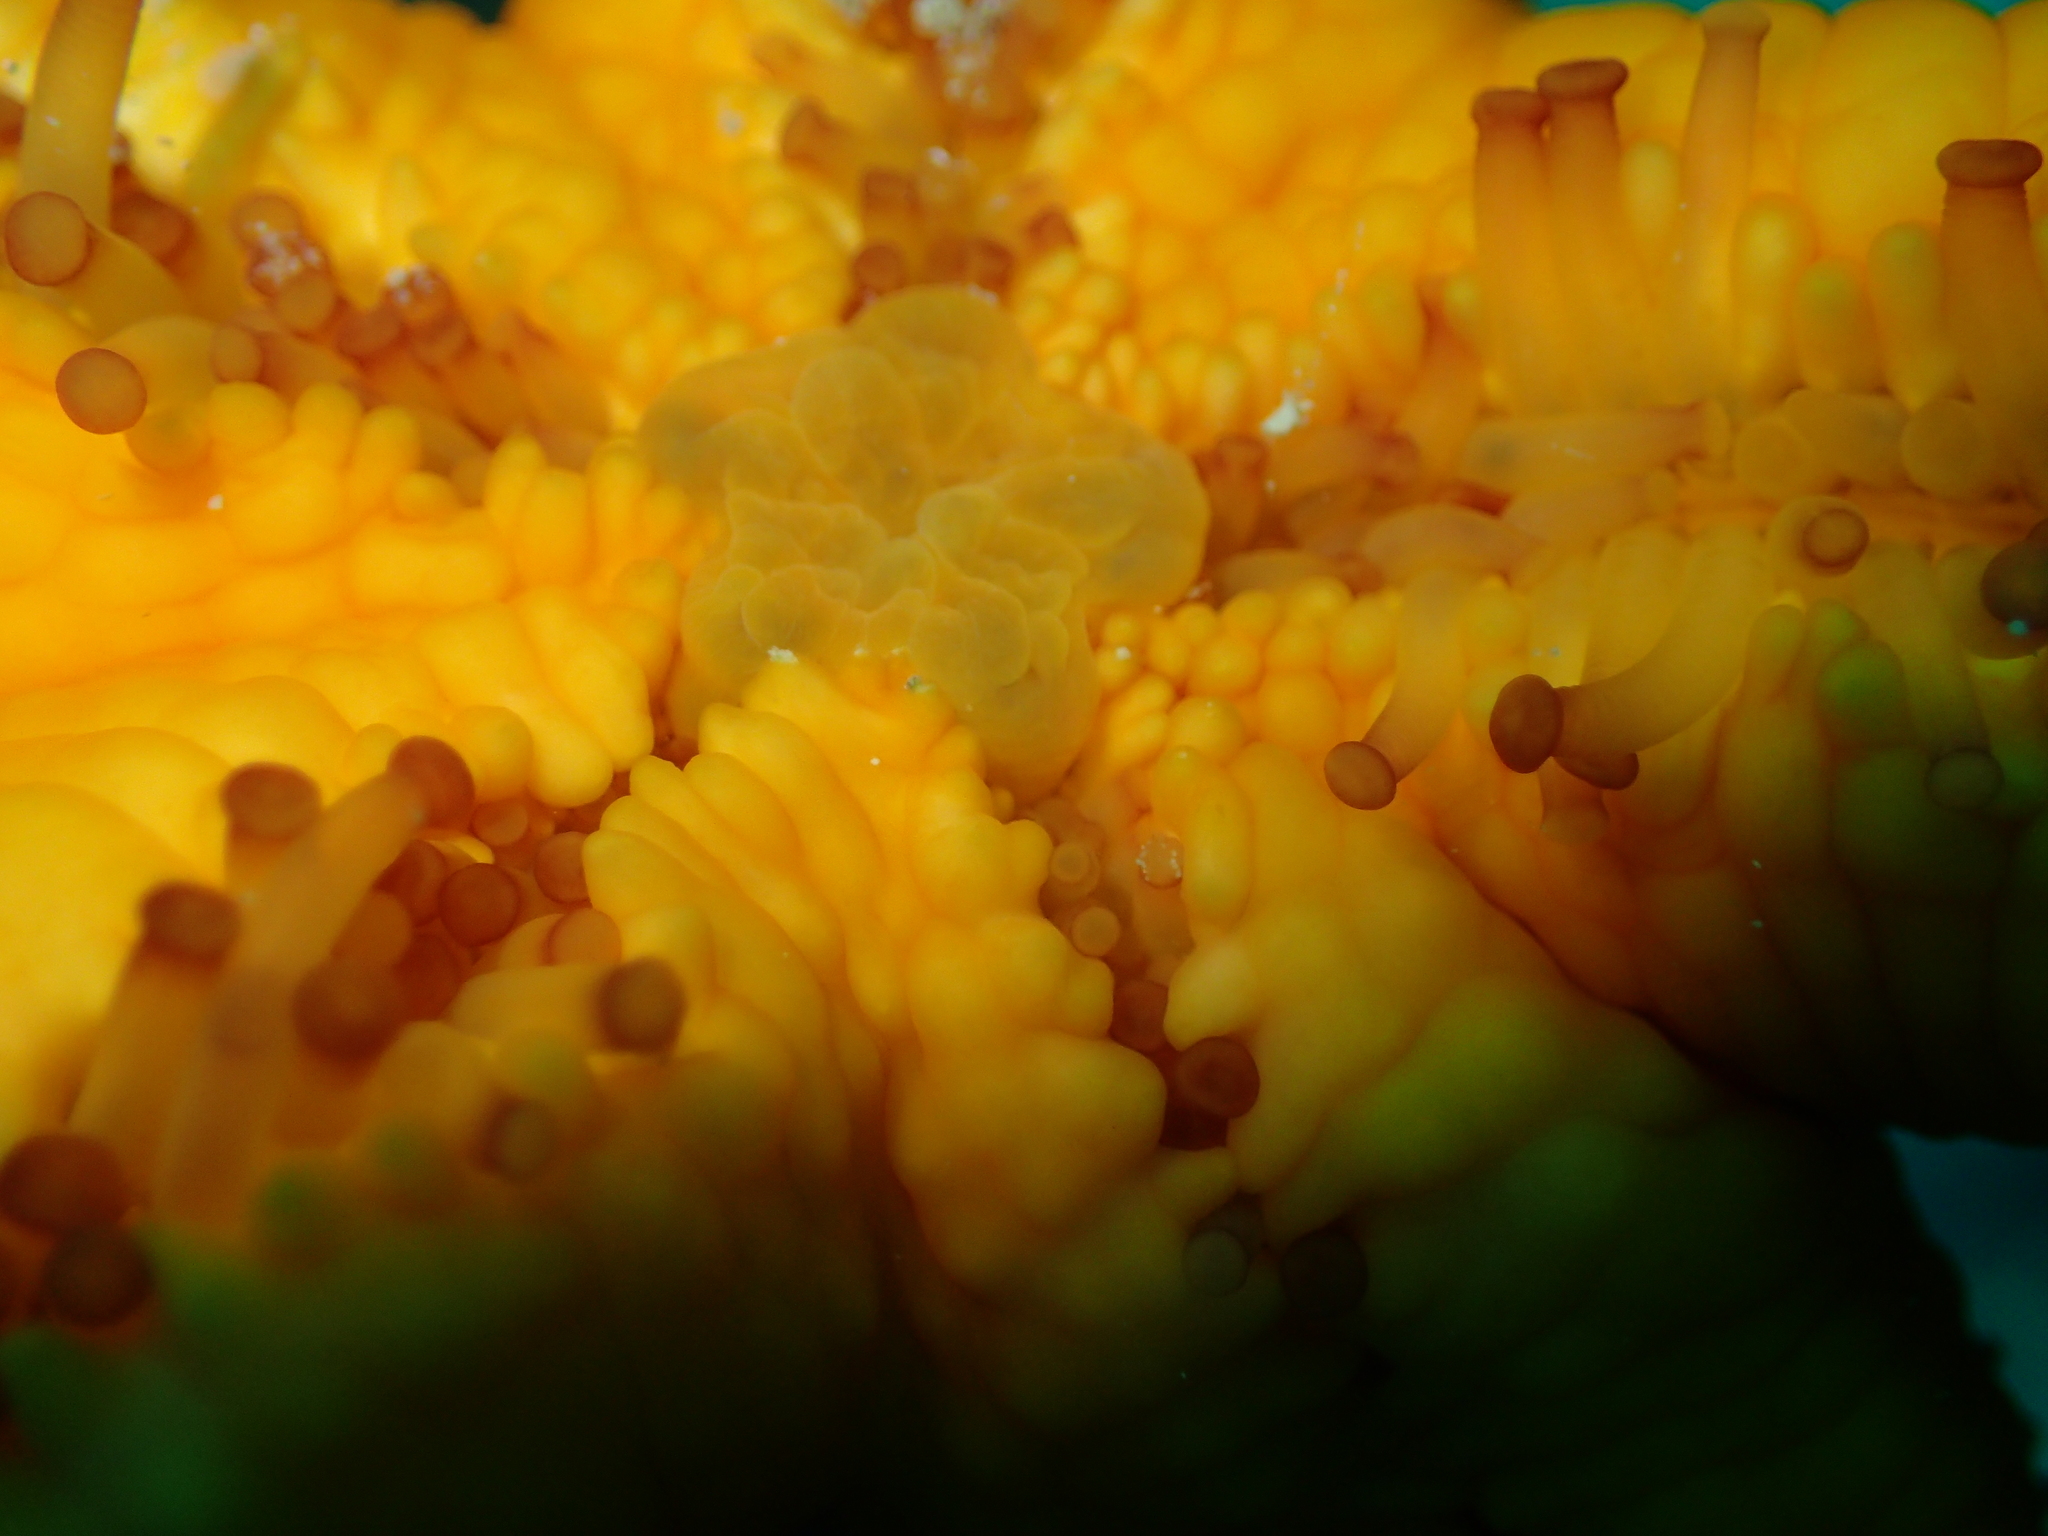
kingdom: Animalia
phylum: Echinodermata
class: Asteroidea
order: Spinulosida
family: Echinasteridae
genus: Echinaster
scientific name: Echinaster sepositus
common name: Red starfish
